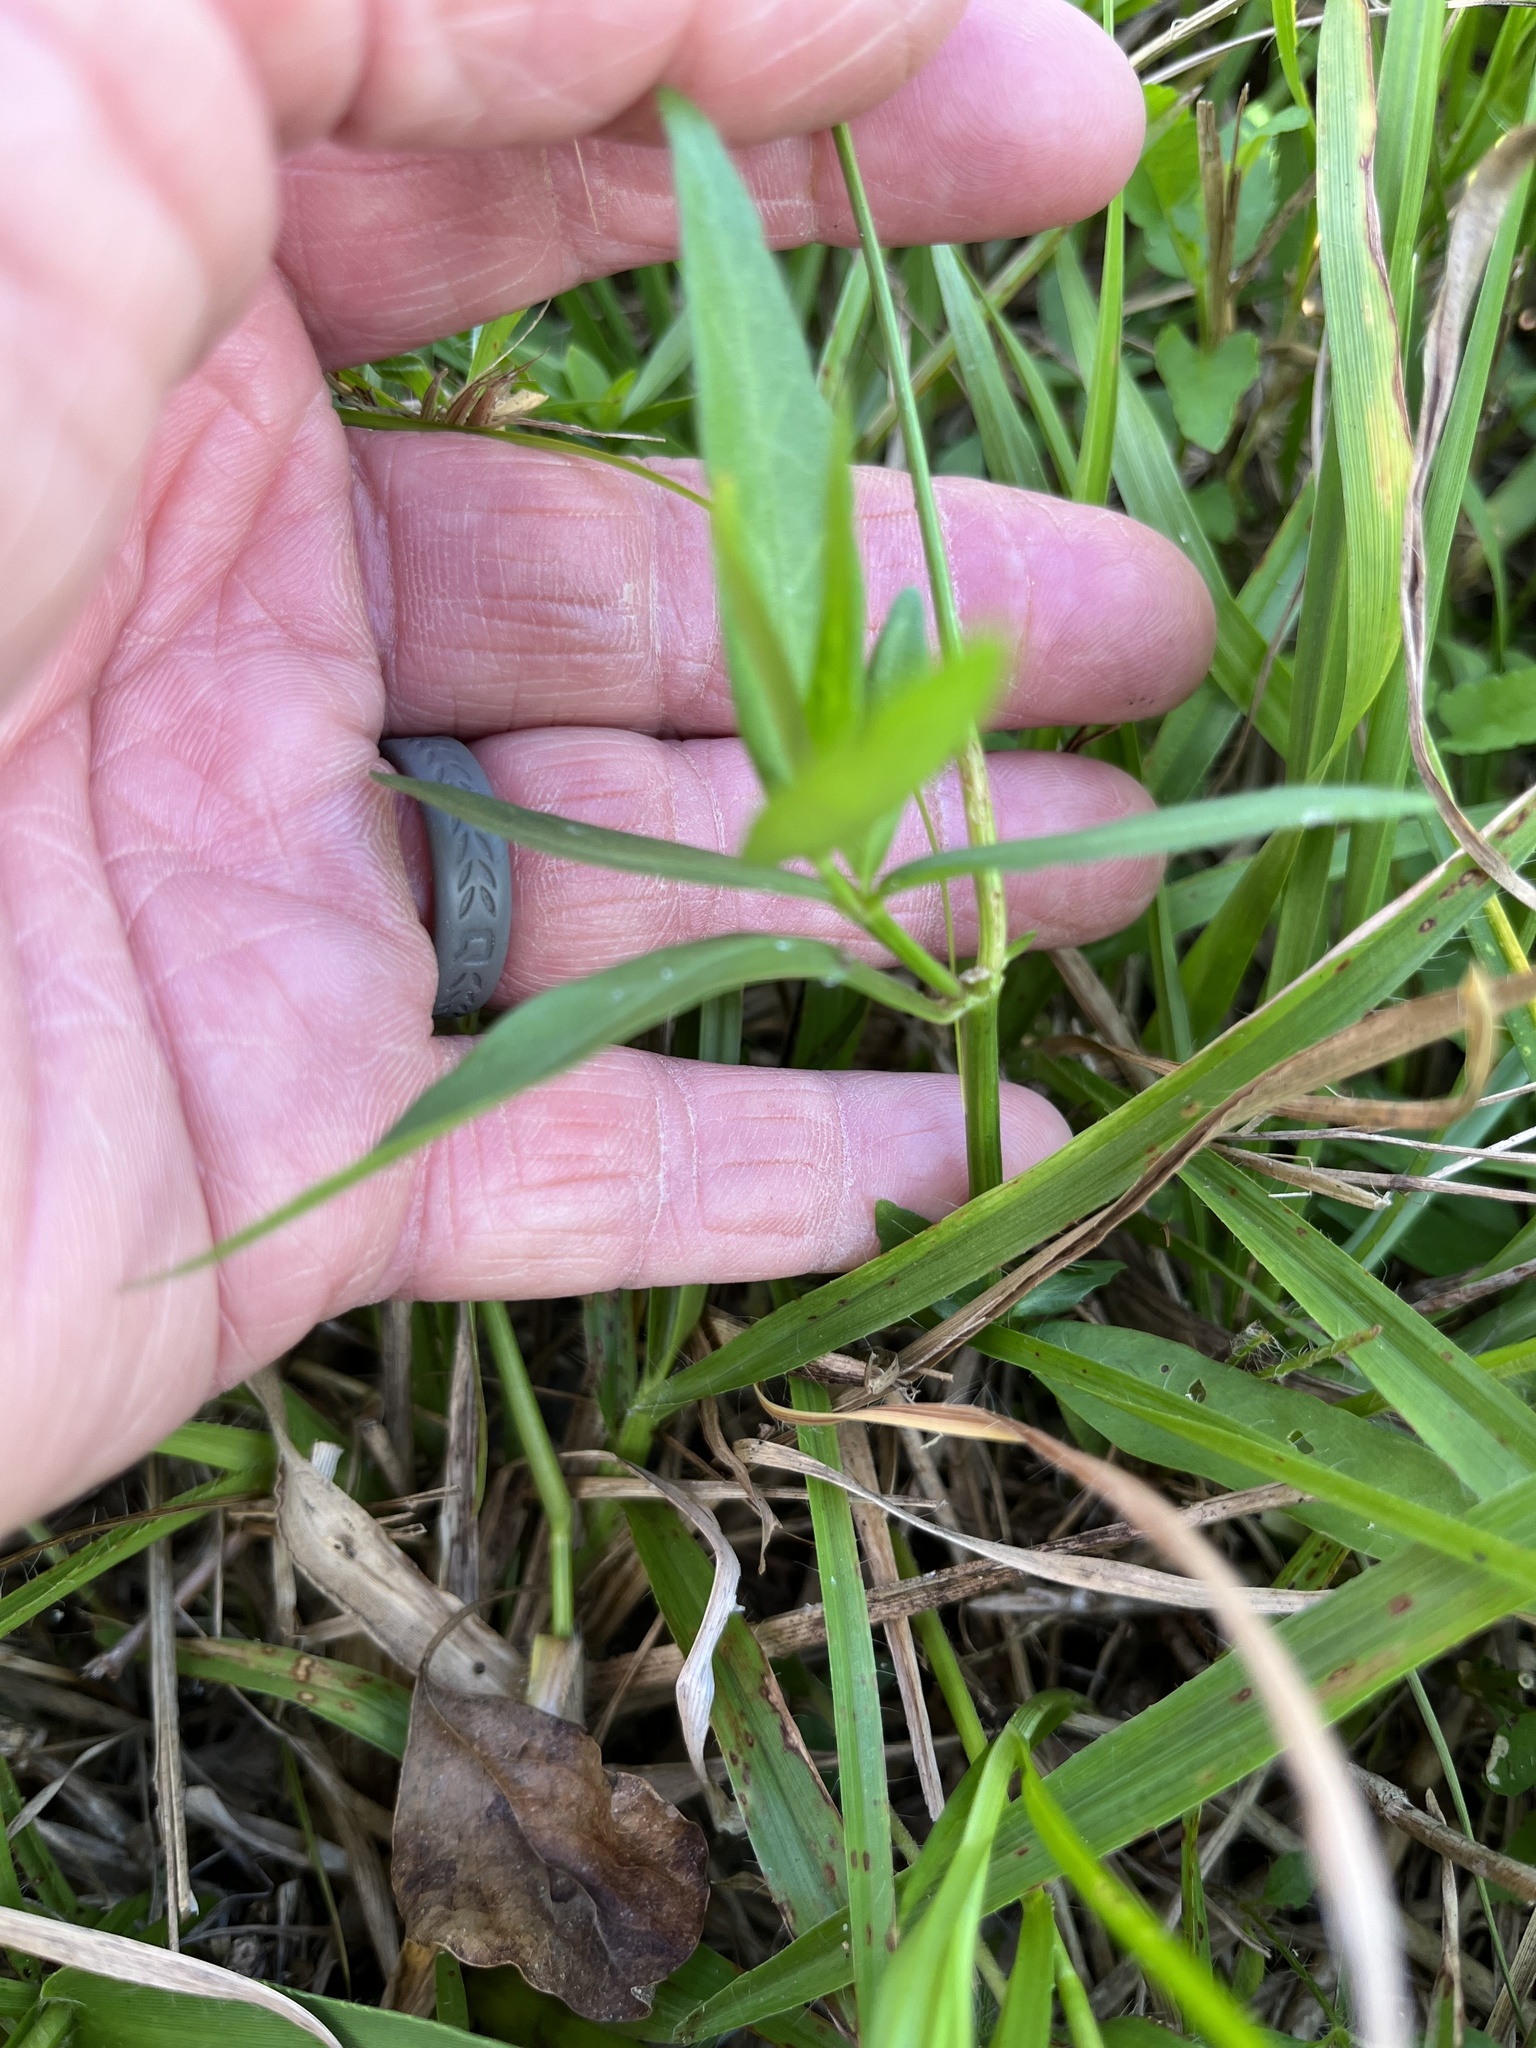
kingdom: Plantae
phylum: Tracheophyta
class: Magnoliopsida
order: Lamiales
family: Acanthaceae
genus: Dianthera
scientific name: Dianthera angusta
